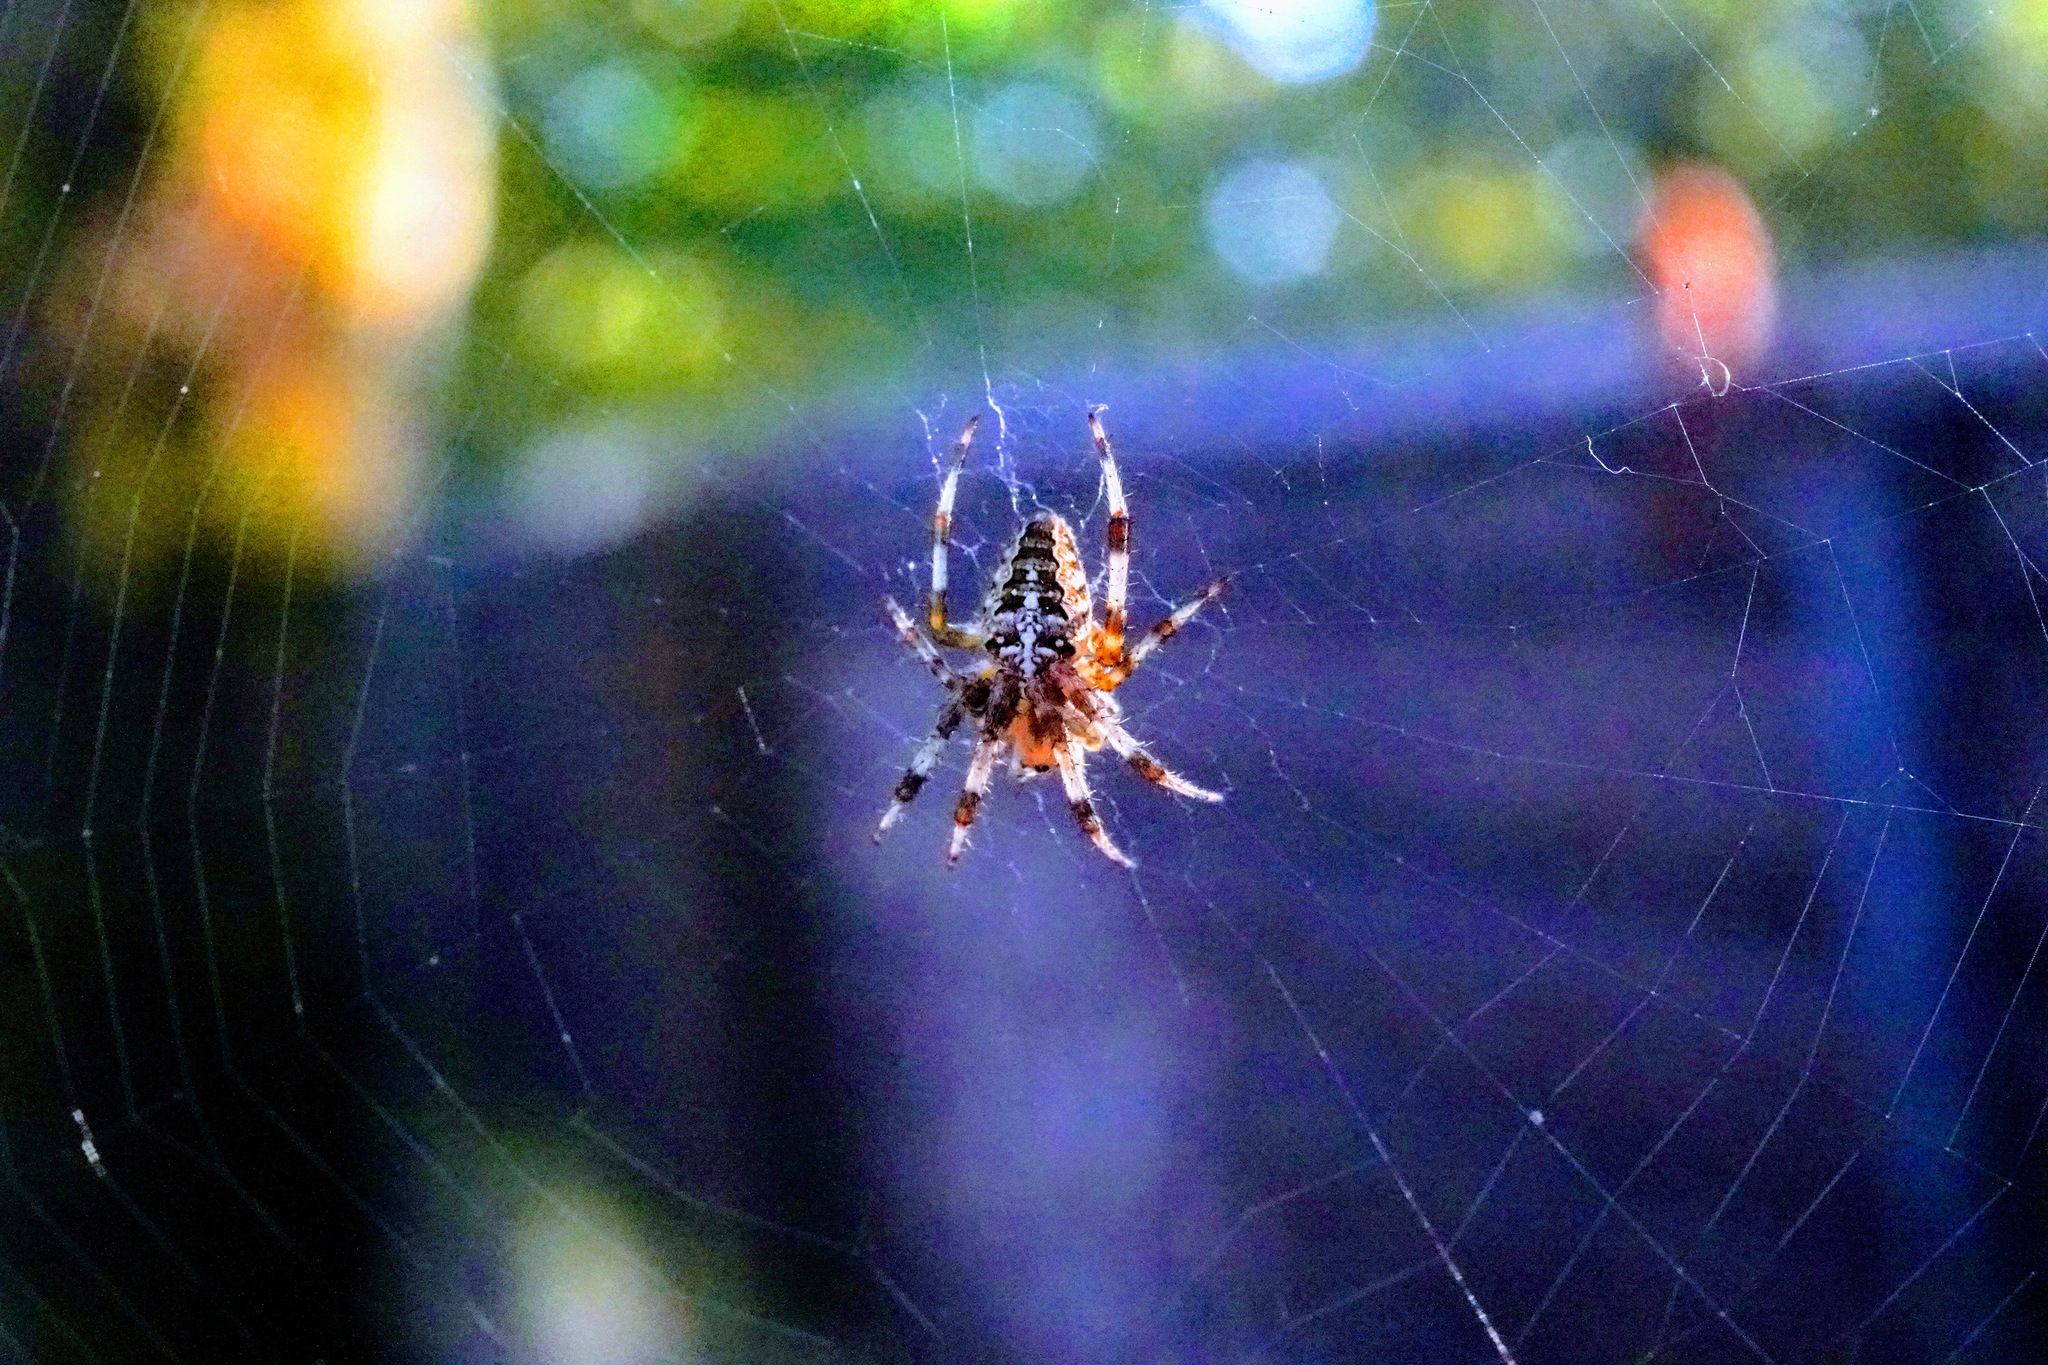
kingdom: Animalia
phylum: Arthropoda
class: Arachnida
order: Araneae
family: Araneidae
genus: Araneus
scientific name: Araneus diadematus
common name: Cross orbweaver
